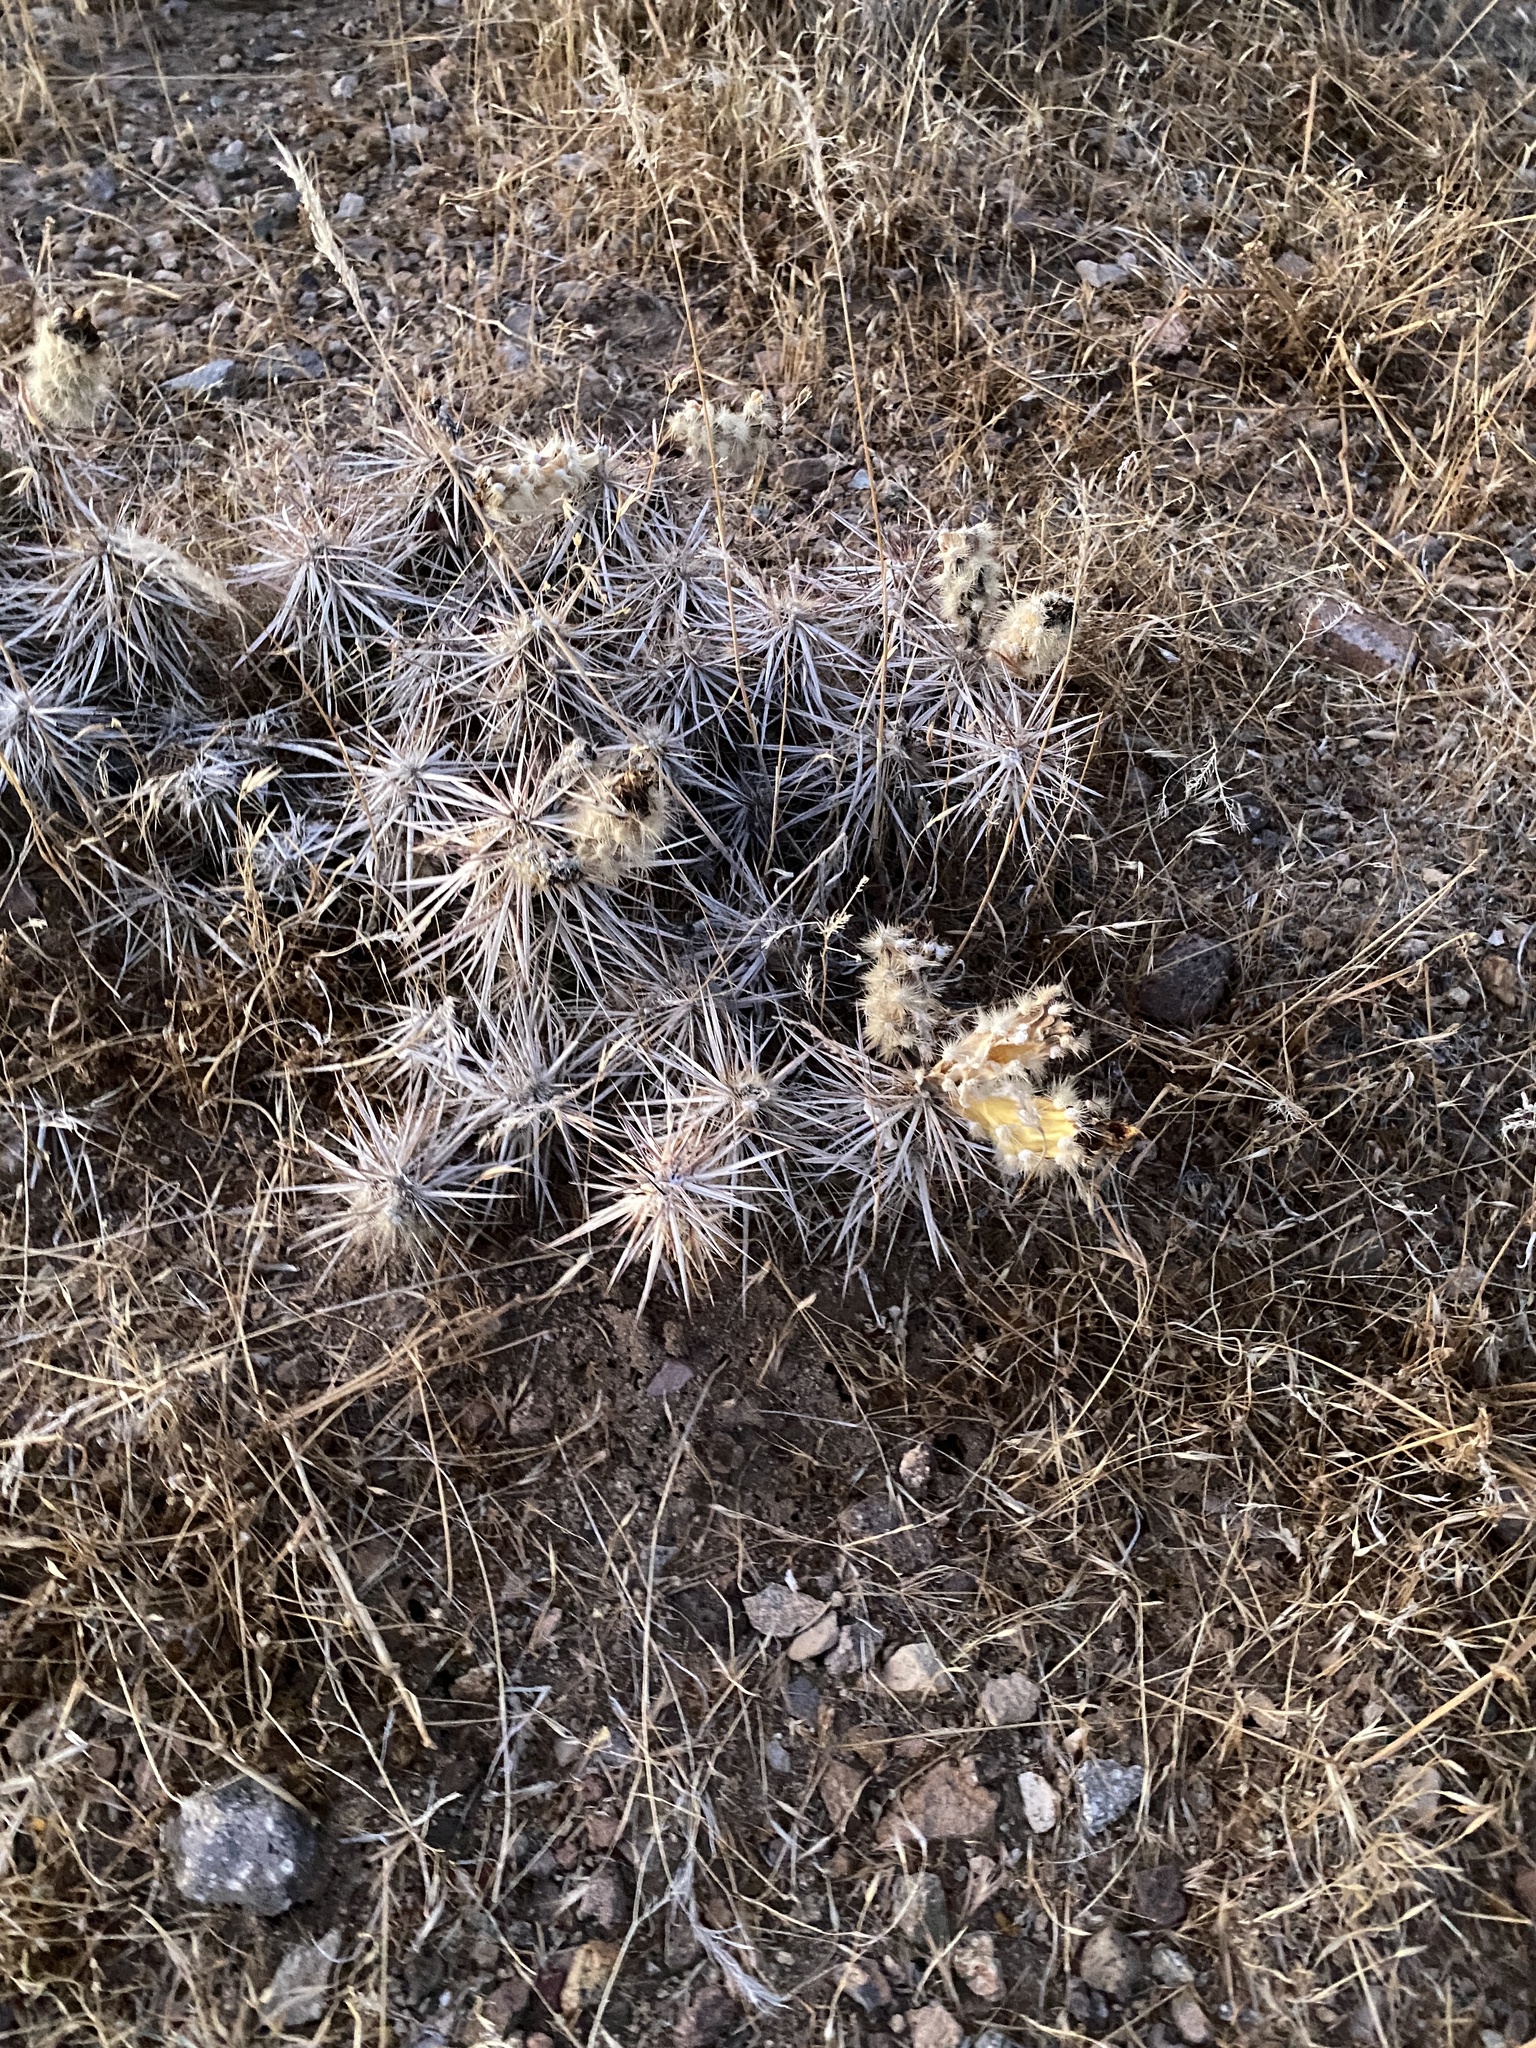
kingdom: Plantae
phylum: Tracheophyta
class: Magnoliopsida
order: Caryophyllales
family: Cactaceae
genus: Grusonia
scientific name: Grusonia parishiorum
